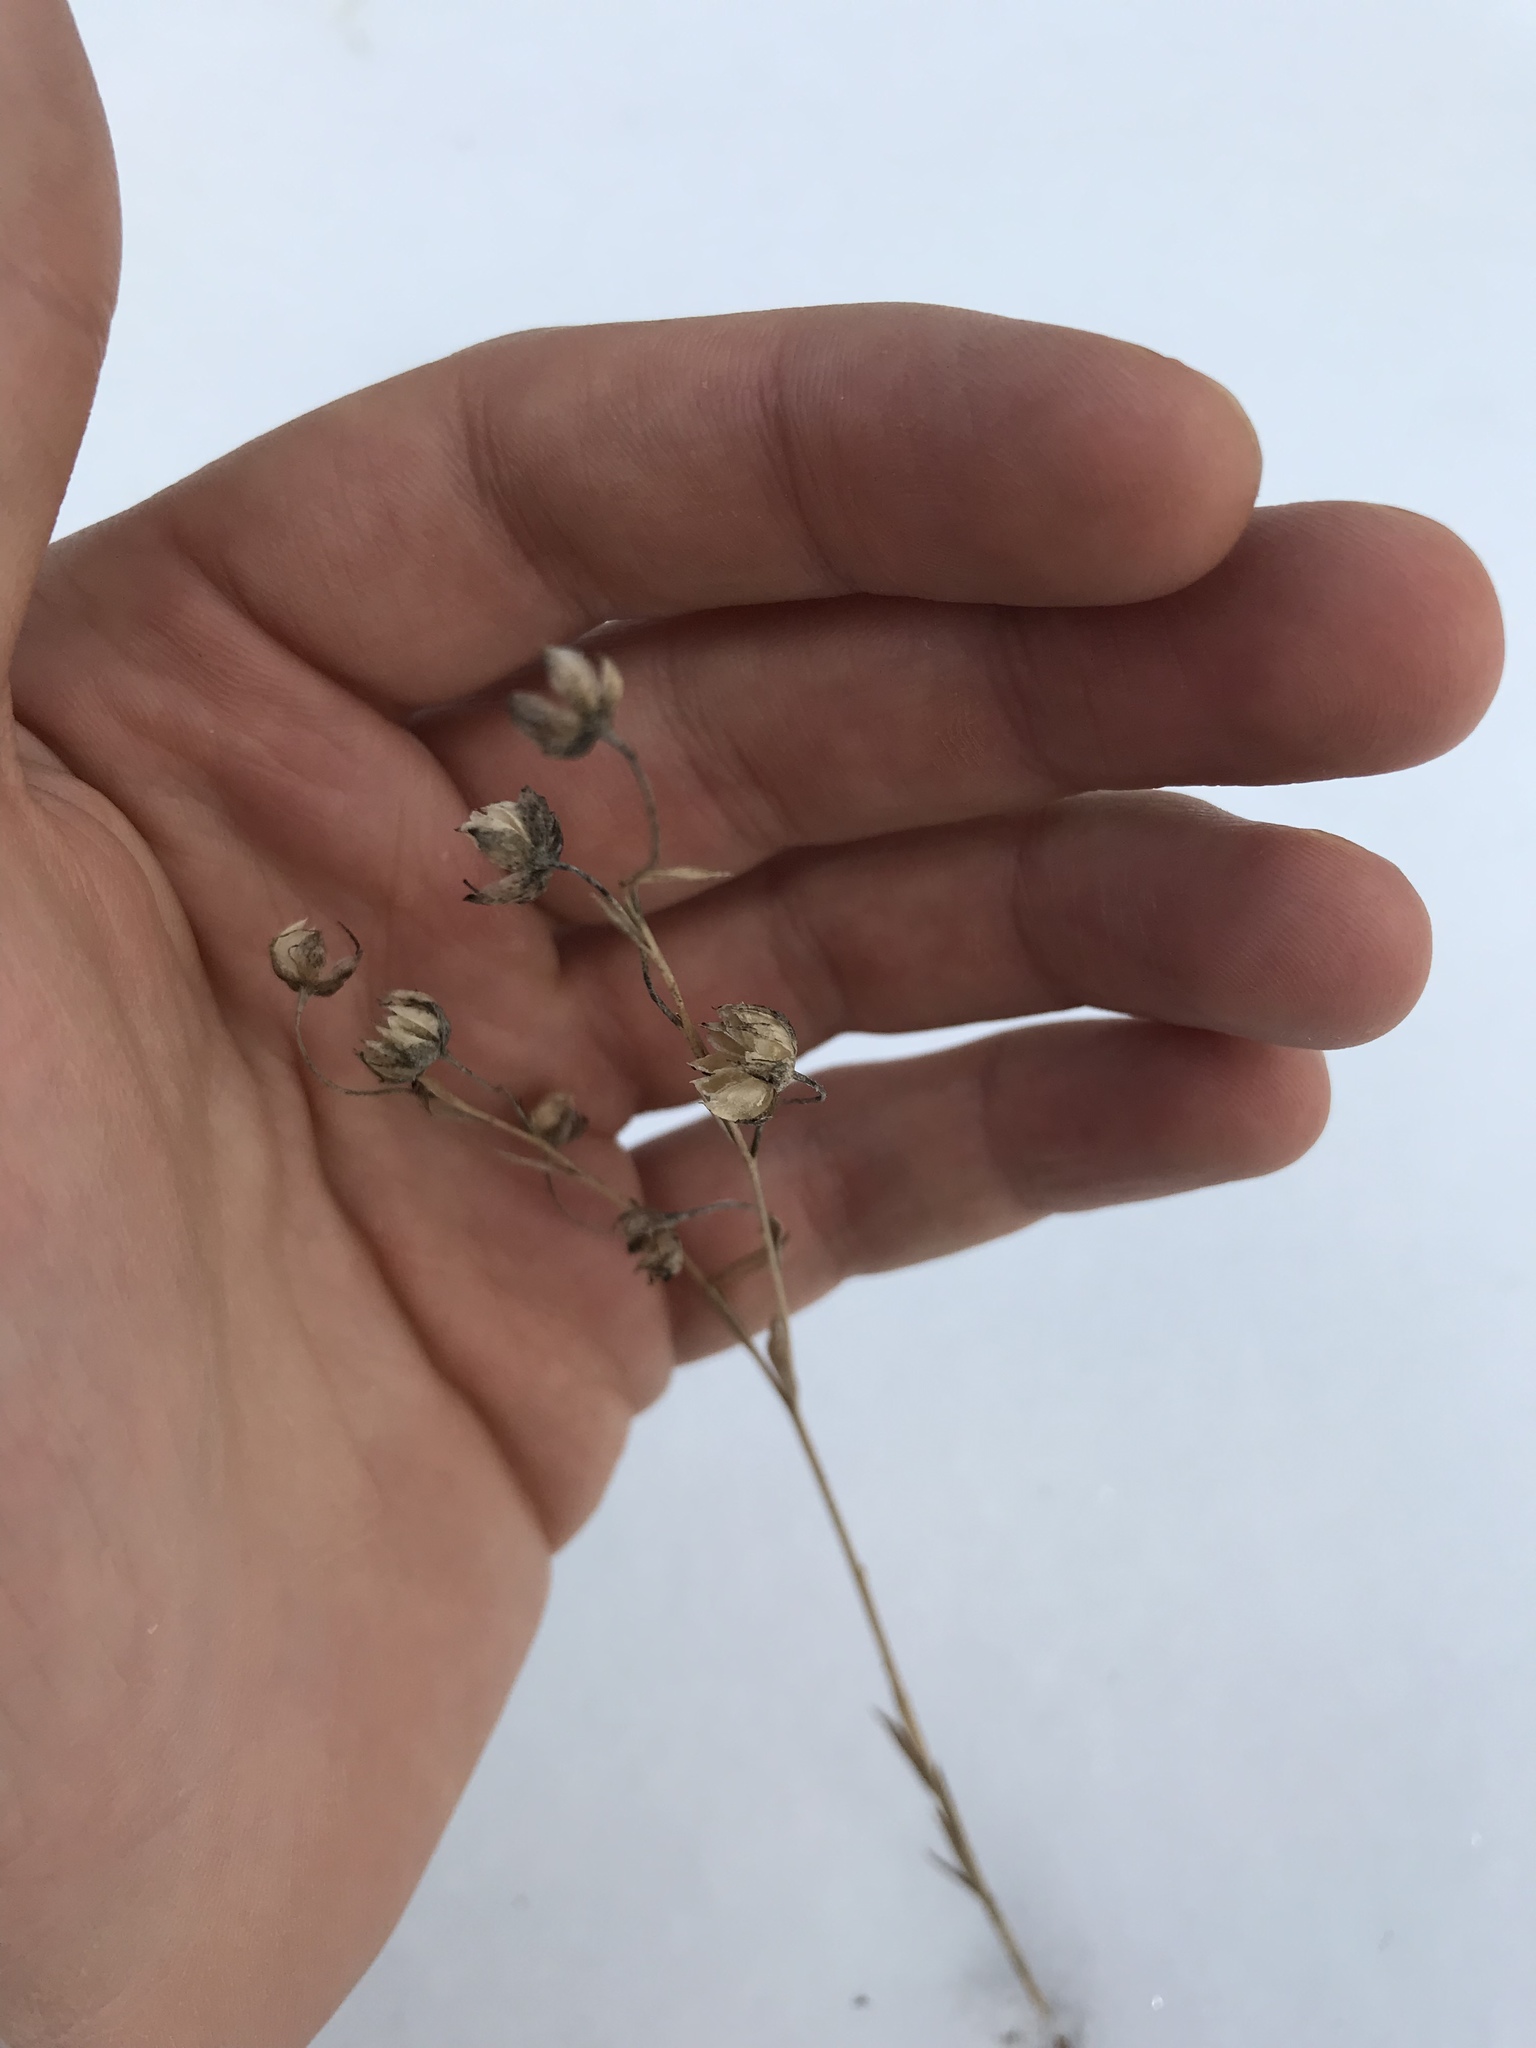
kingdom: Plantae
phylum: Tracheophyta
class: Magnoliopsida
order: Malpighiales
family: Linaceae
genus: Linum
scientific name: Linum lewisii
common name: Prairie flax
